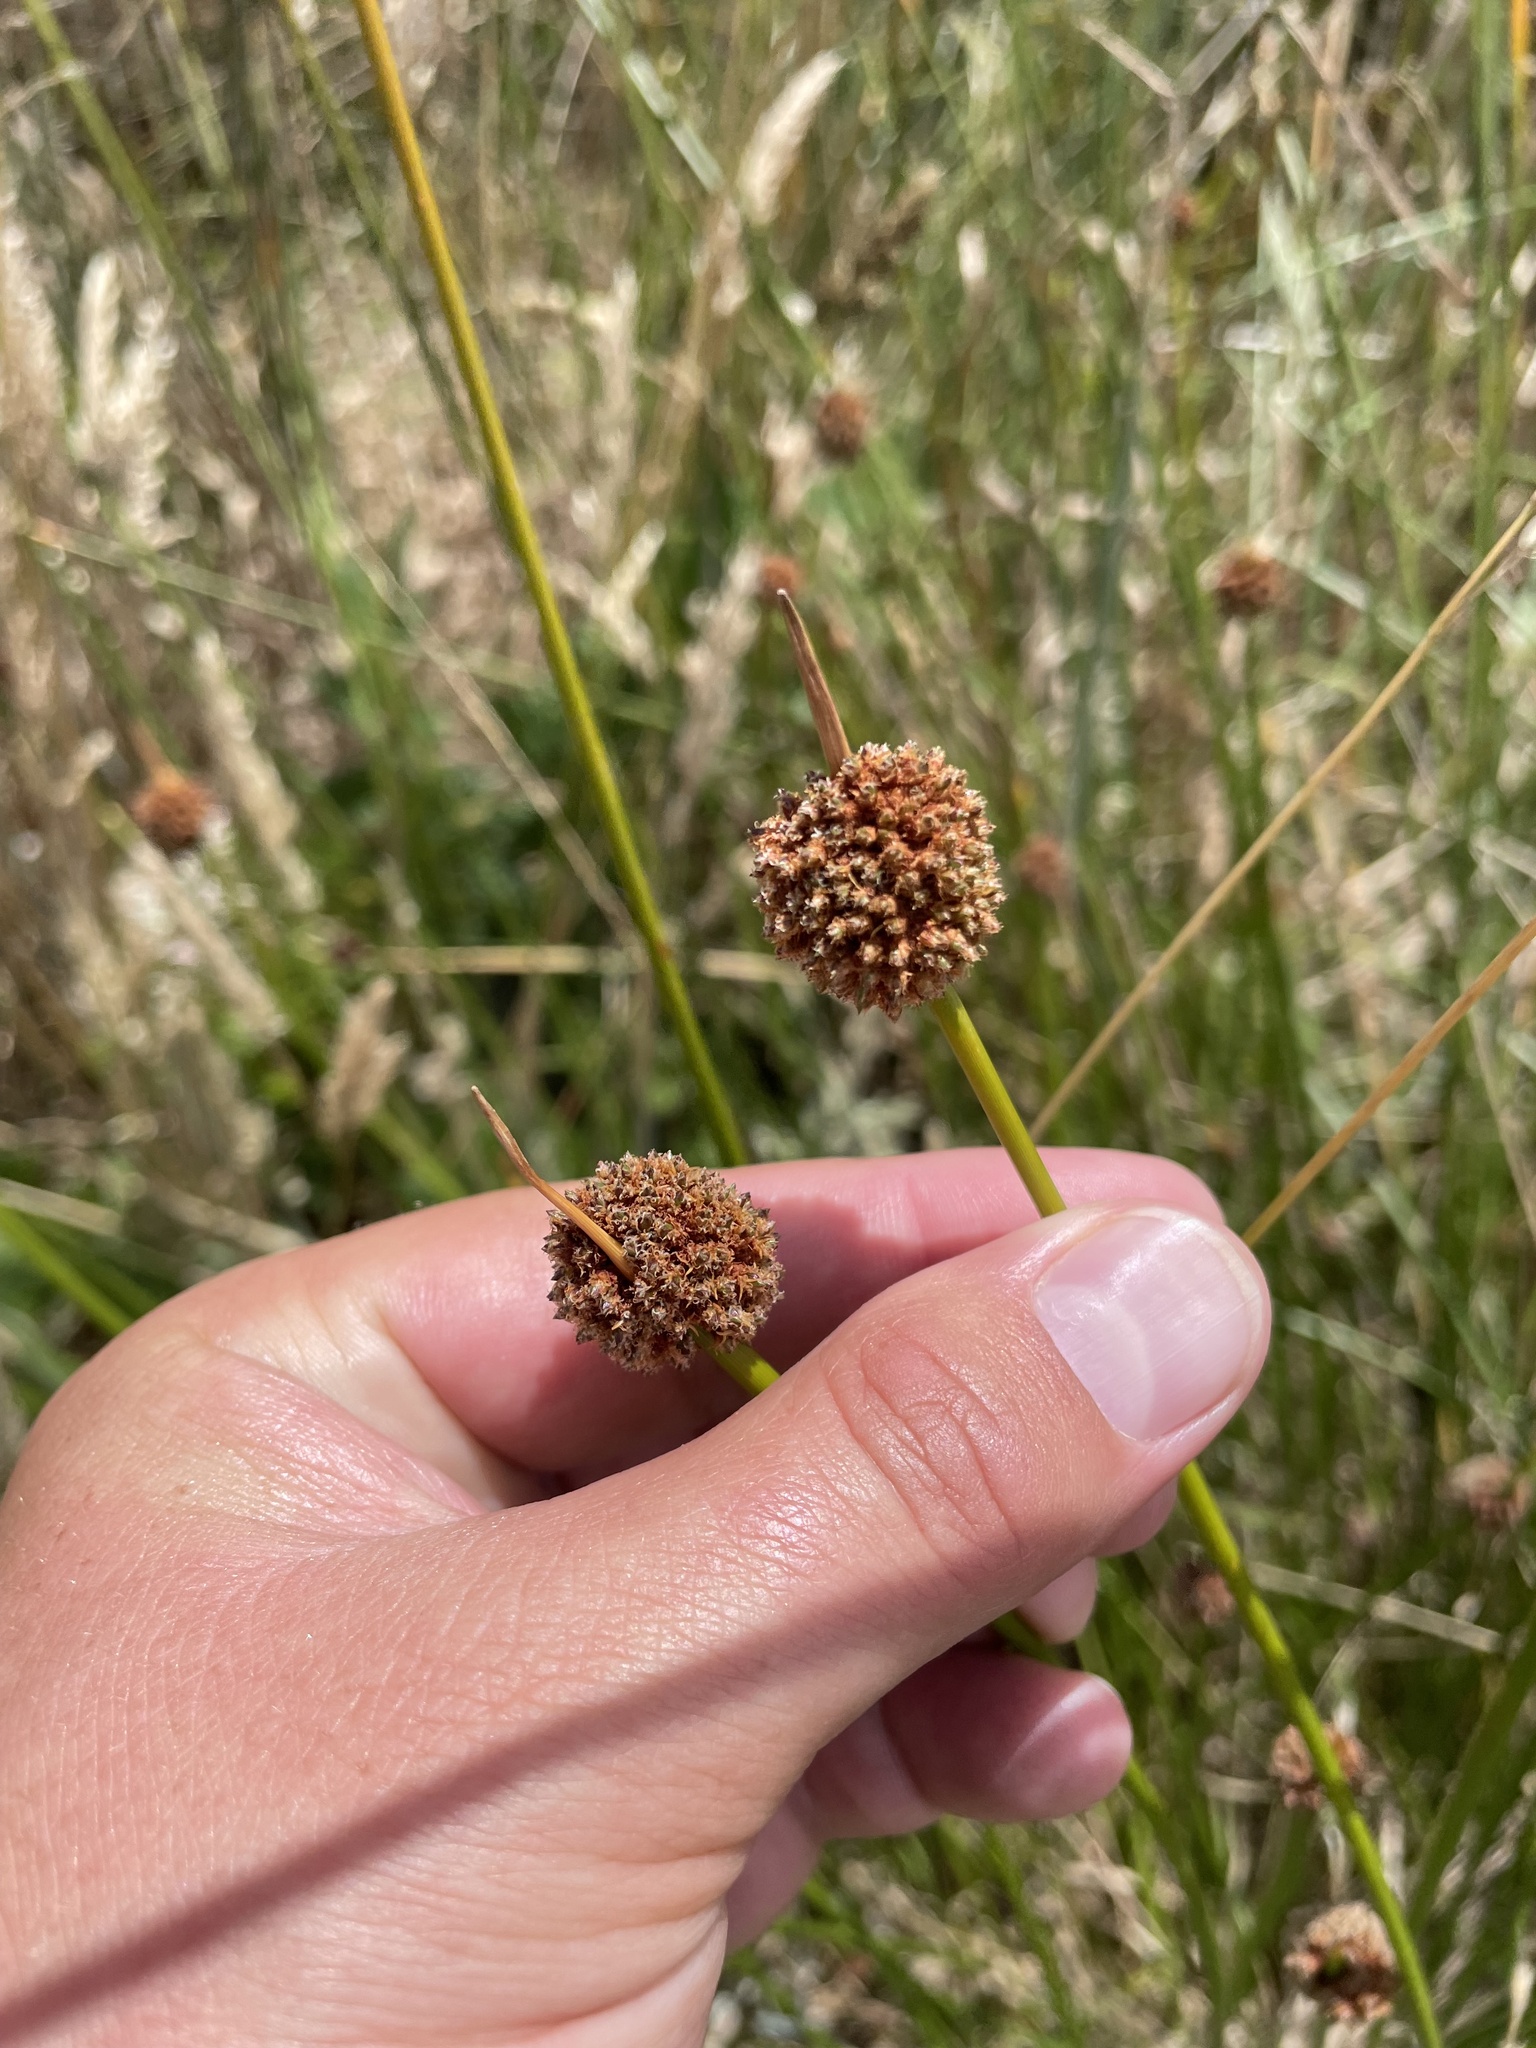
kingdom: Plantae
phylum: Tracheophyta
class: Liliopsida
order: Poales
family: Cyperaceae
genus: Ficinia
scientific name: Ficinia nodosa
